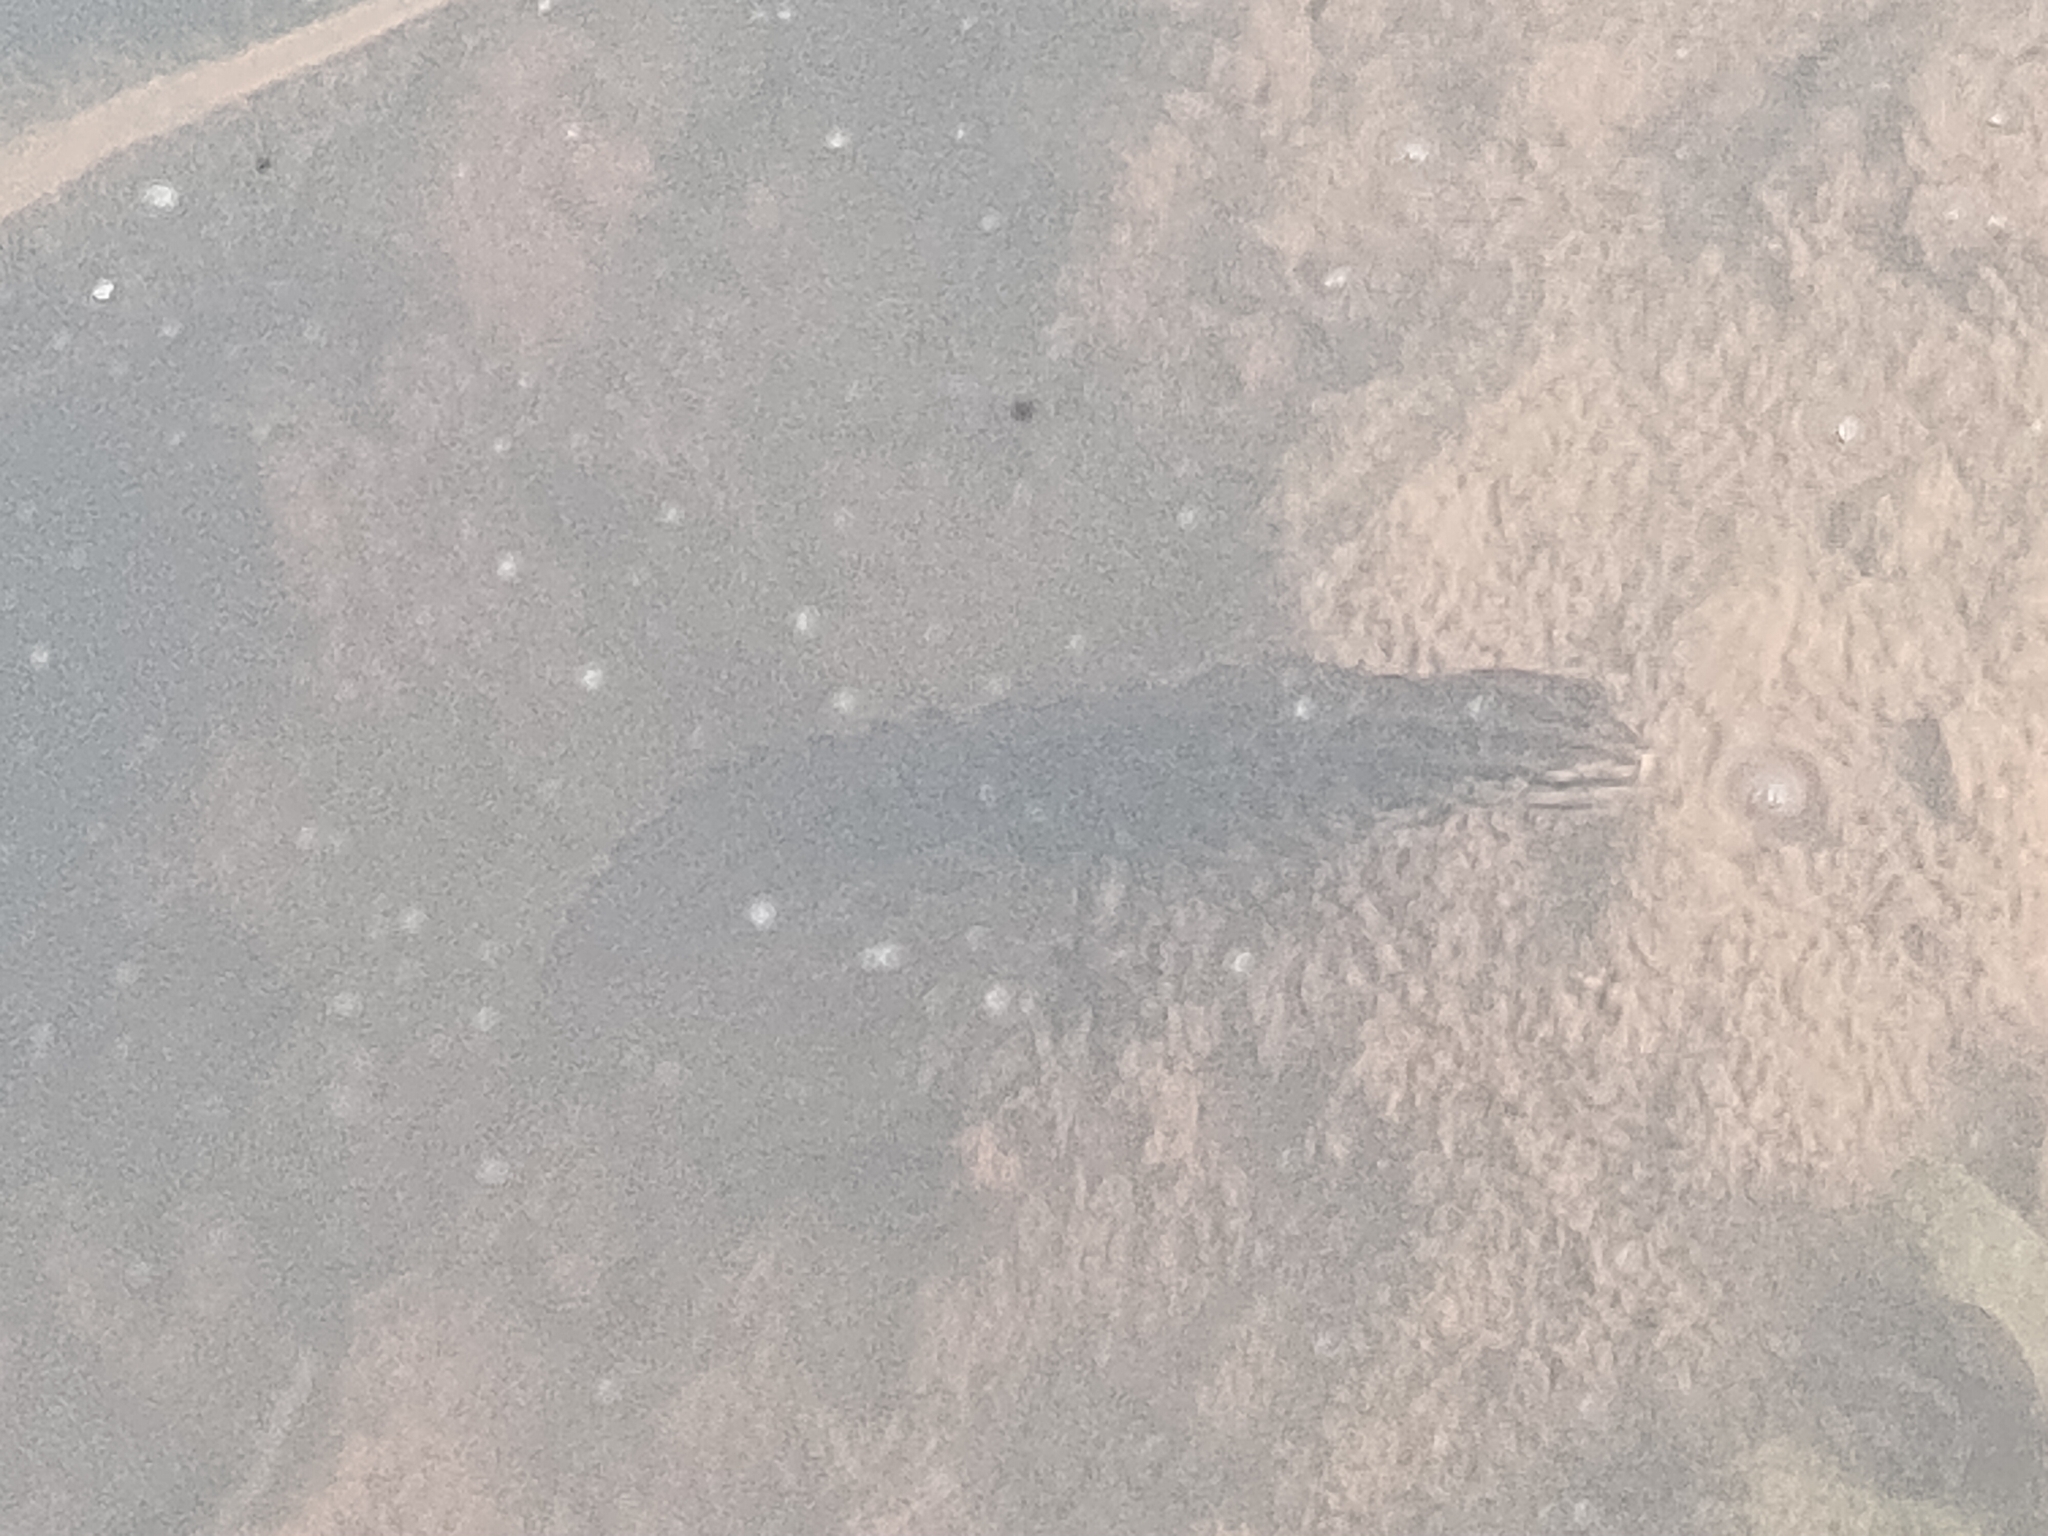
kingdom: Animalia
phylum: Chordata
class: Amphibia
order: Caudata
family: Salamandridae
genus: Lissotriton
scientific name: Lissotriton vulgaris
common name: Smooth newt
